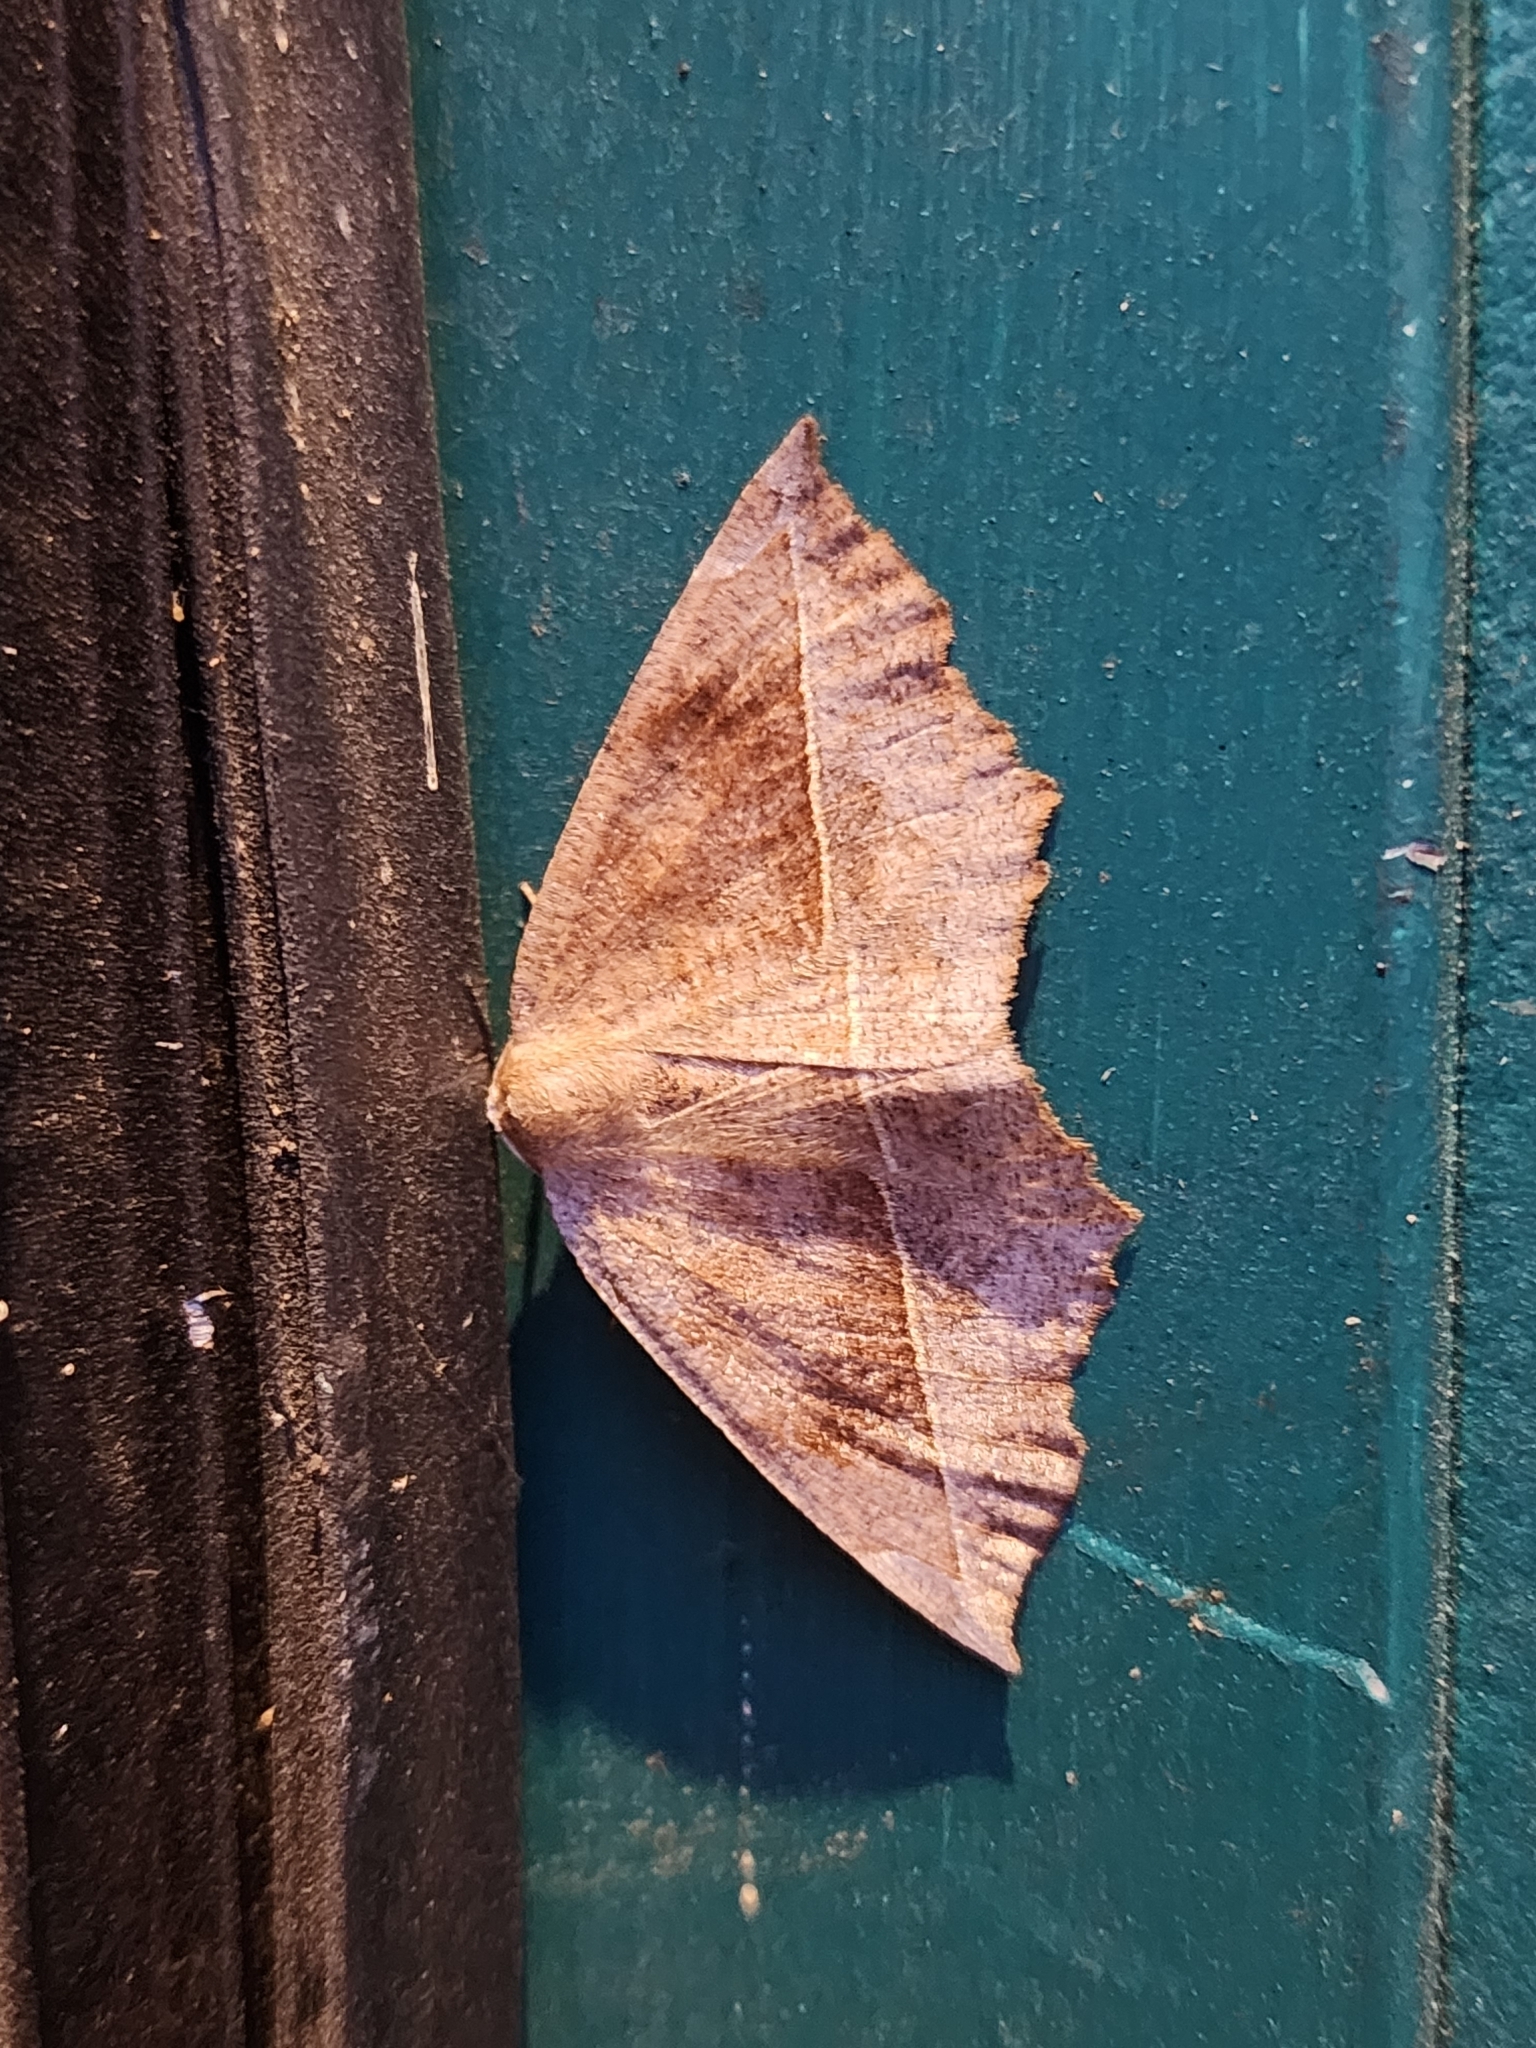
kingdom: Animalia
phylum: Arthropoda
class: Insecta
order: Lepidoptera
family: Geometridae
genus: Eutrapela
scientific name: Eutrapela clemataria
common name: Curved-toothed geometer
